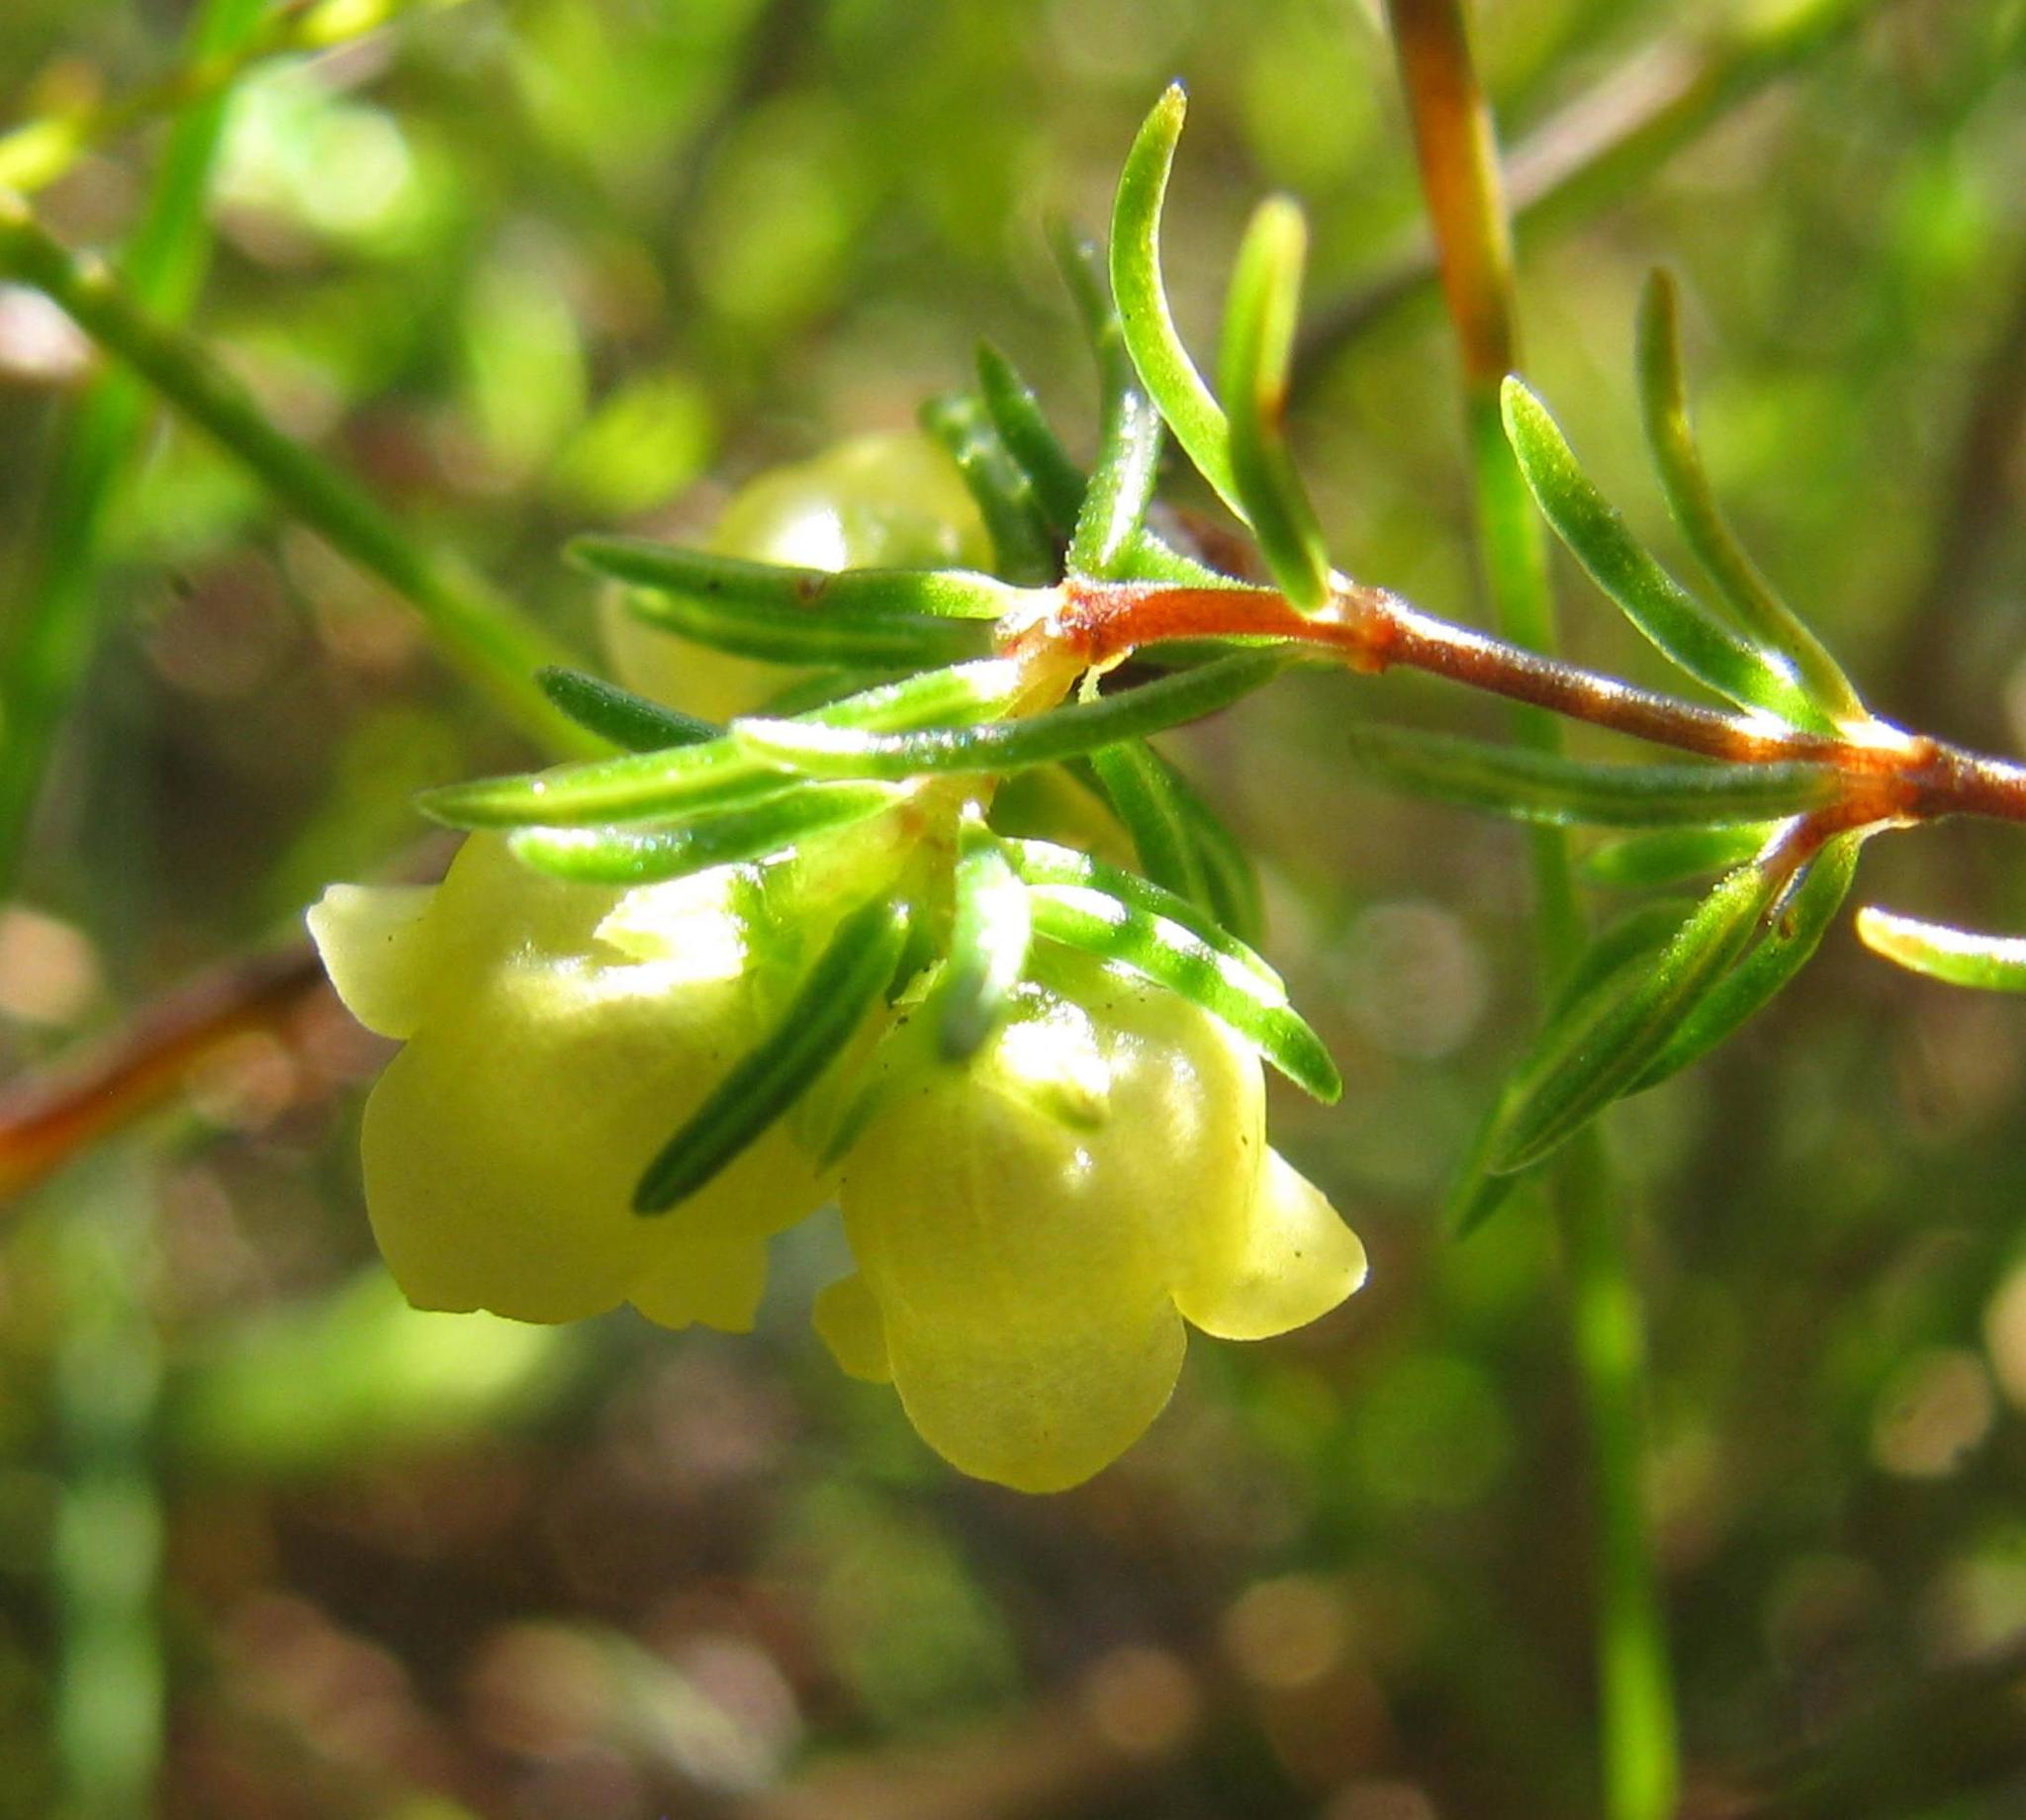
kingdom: Plantae
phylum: Tracheophyta
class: Magnoliopsida
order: Ericales
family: Ericaceae
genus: Erica
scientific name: Erica hansfordii
